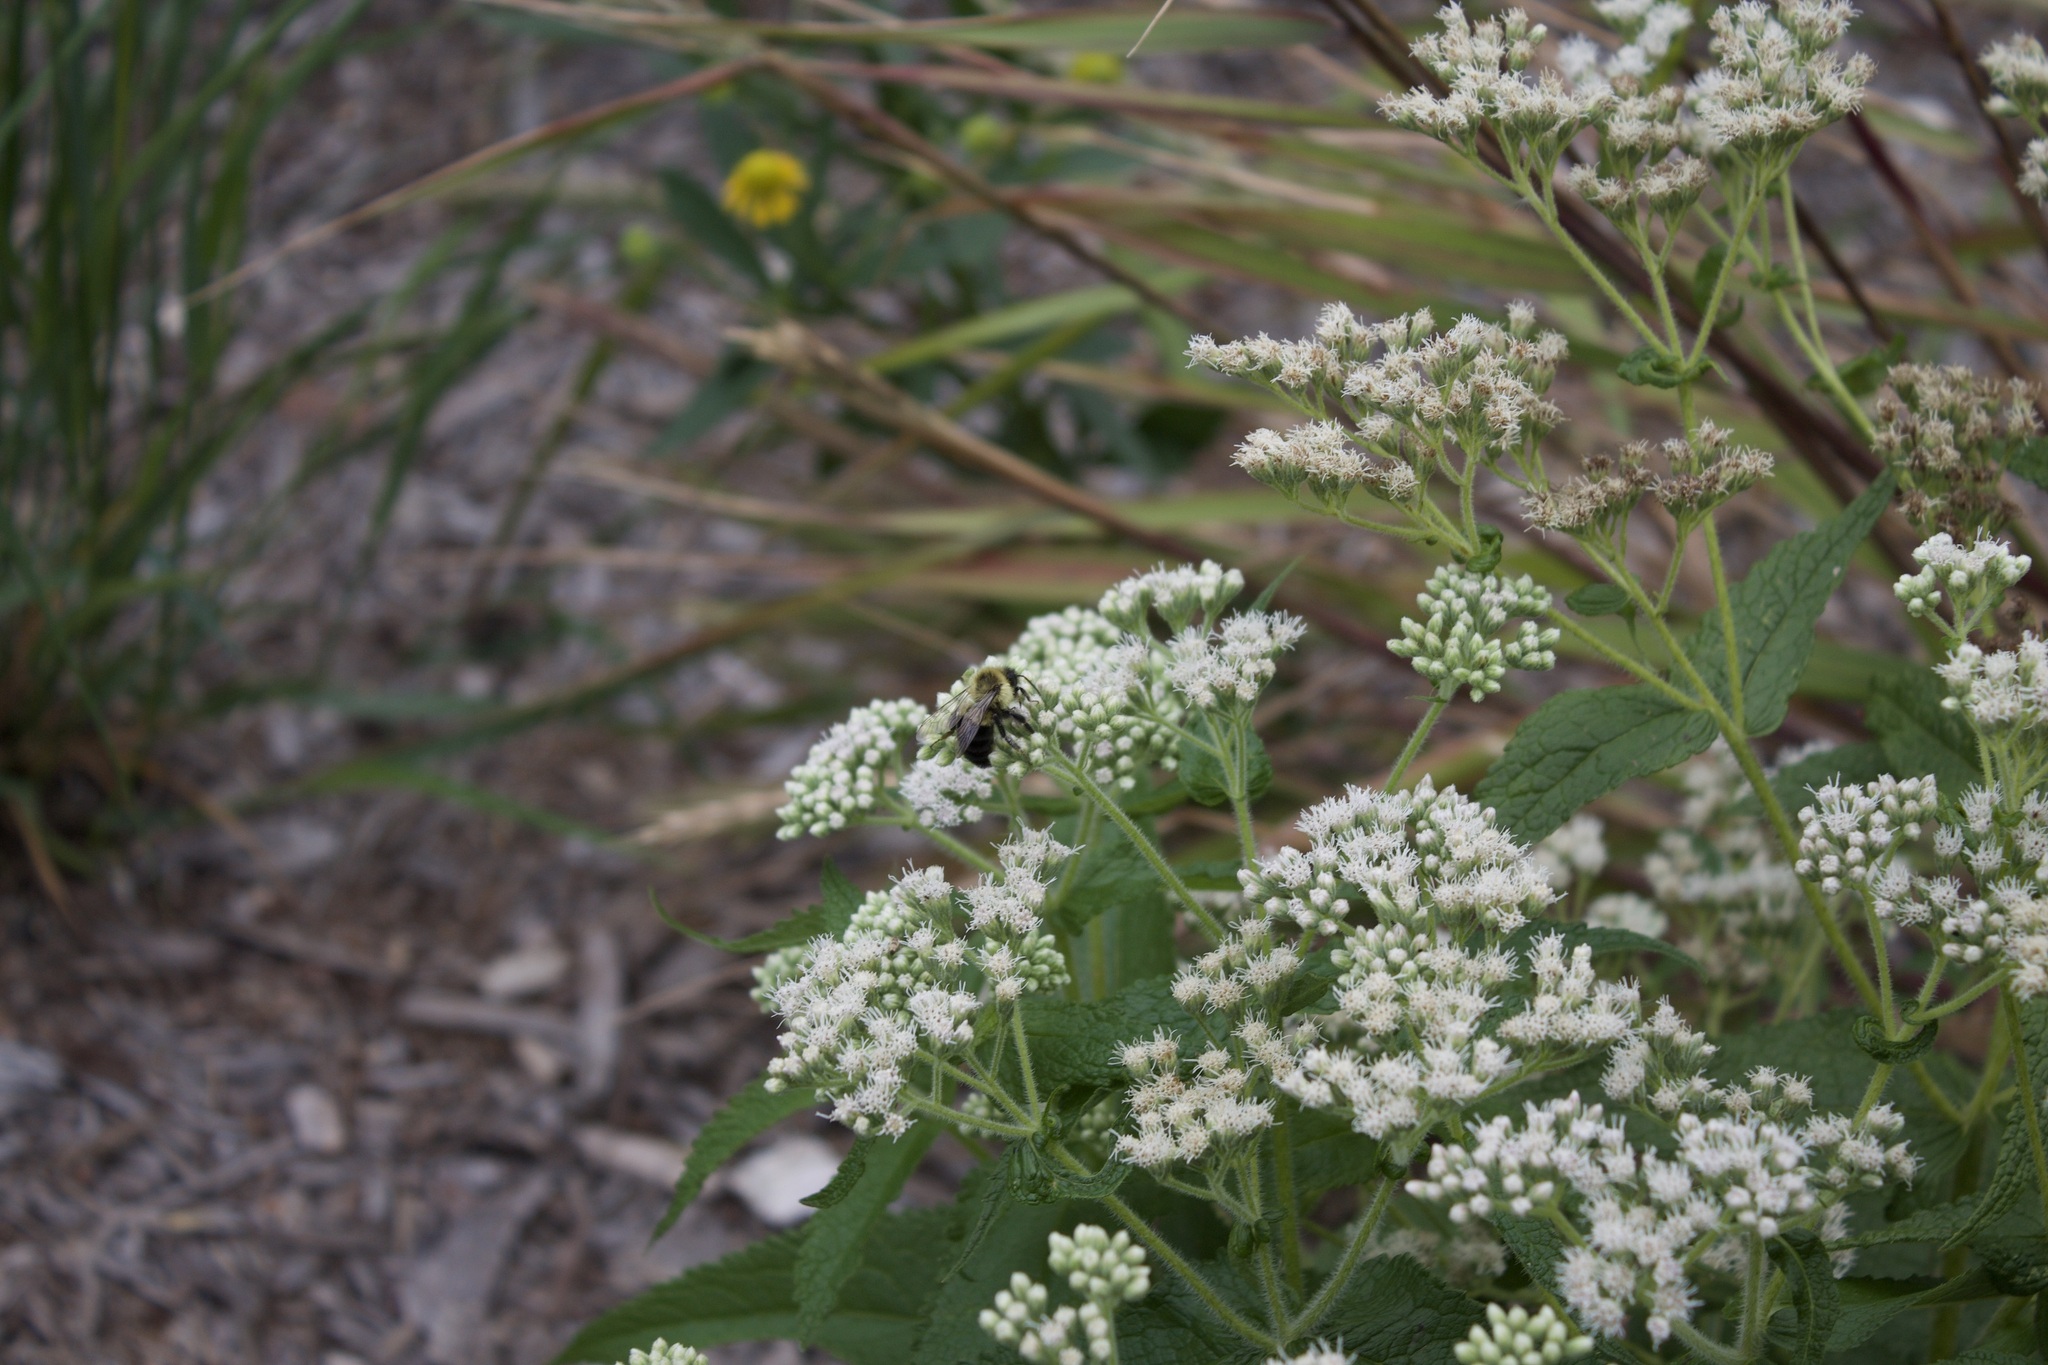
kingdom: Animalia
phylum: Arthropoda
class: Insecta
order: Hymenoptera
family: Apidae
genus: Bombus
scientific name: Bombus impatiens
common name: Common eastern bumble bee
